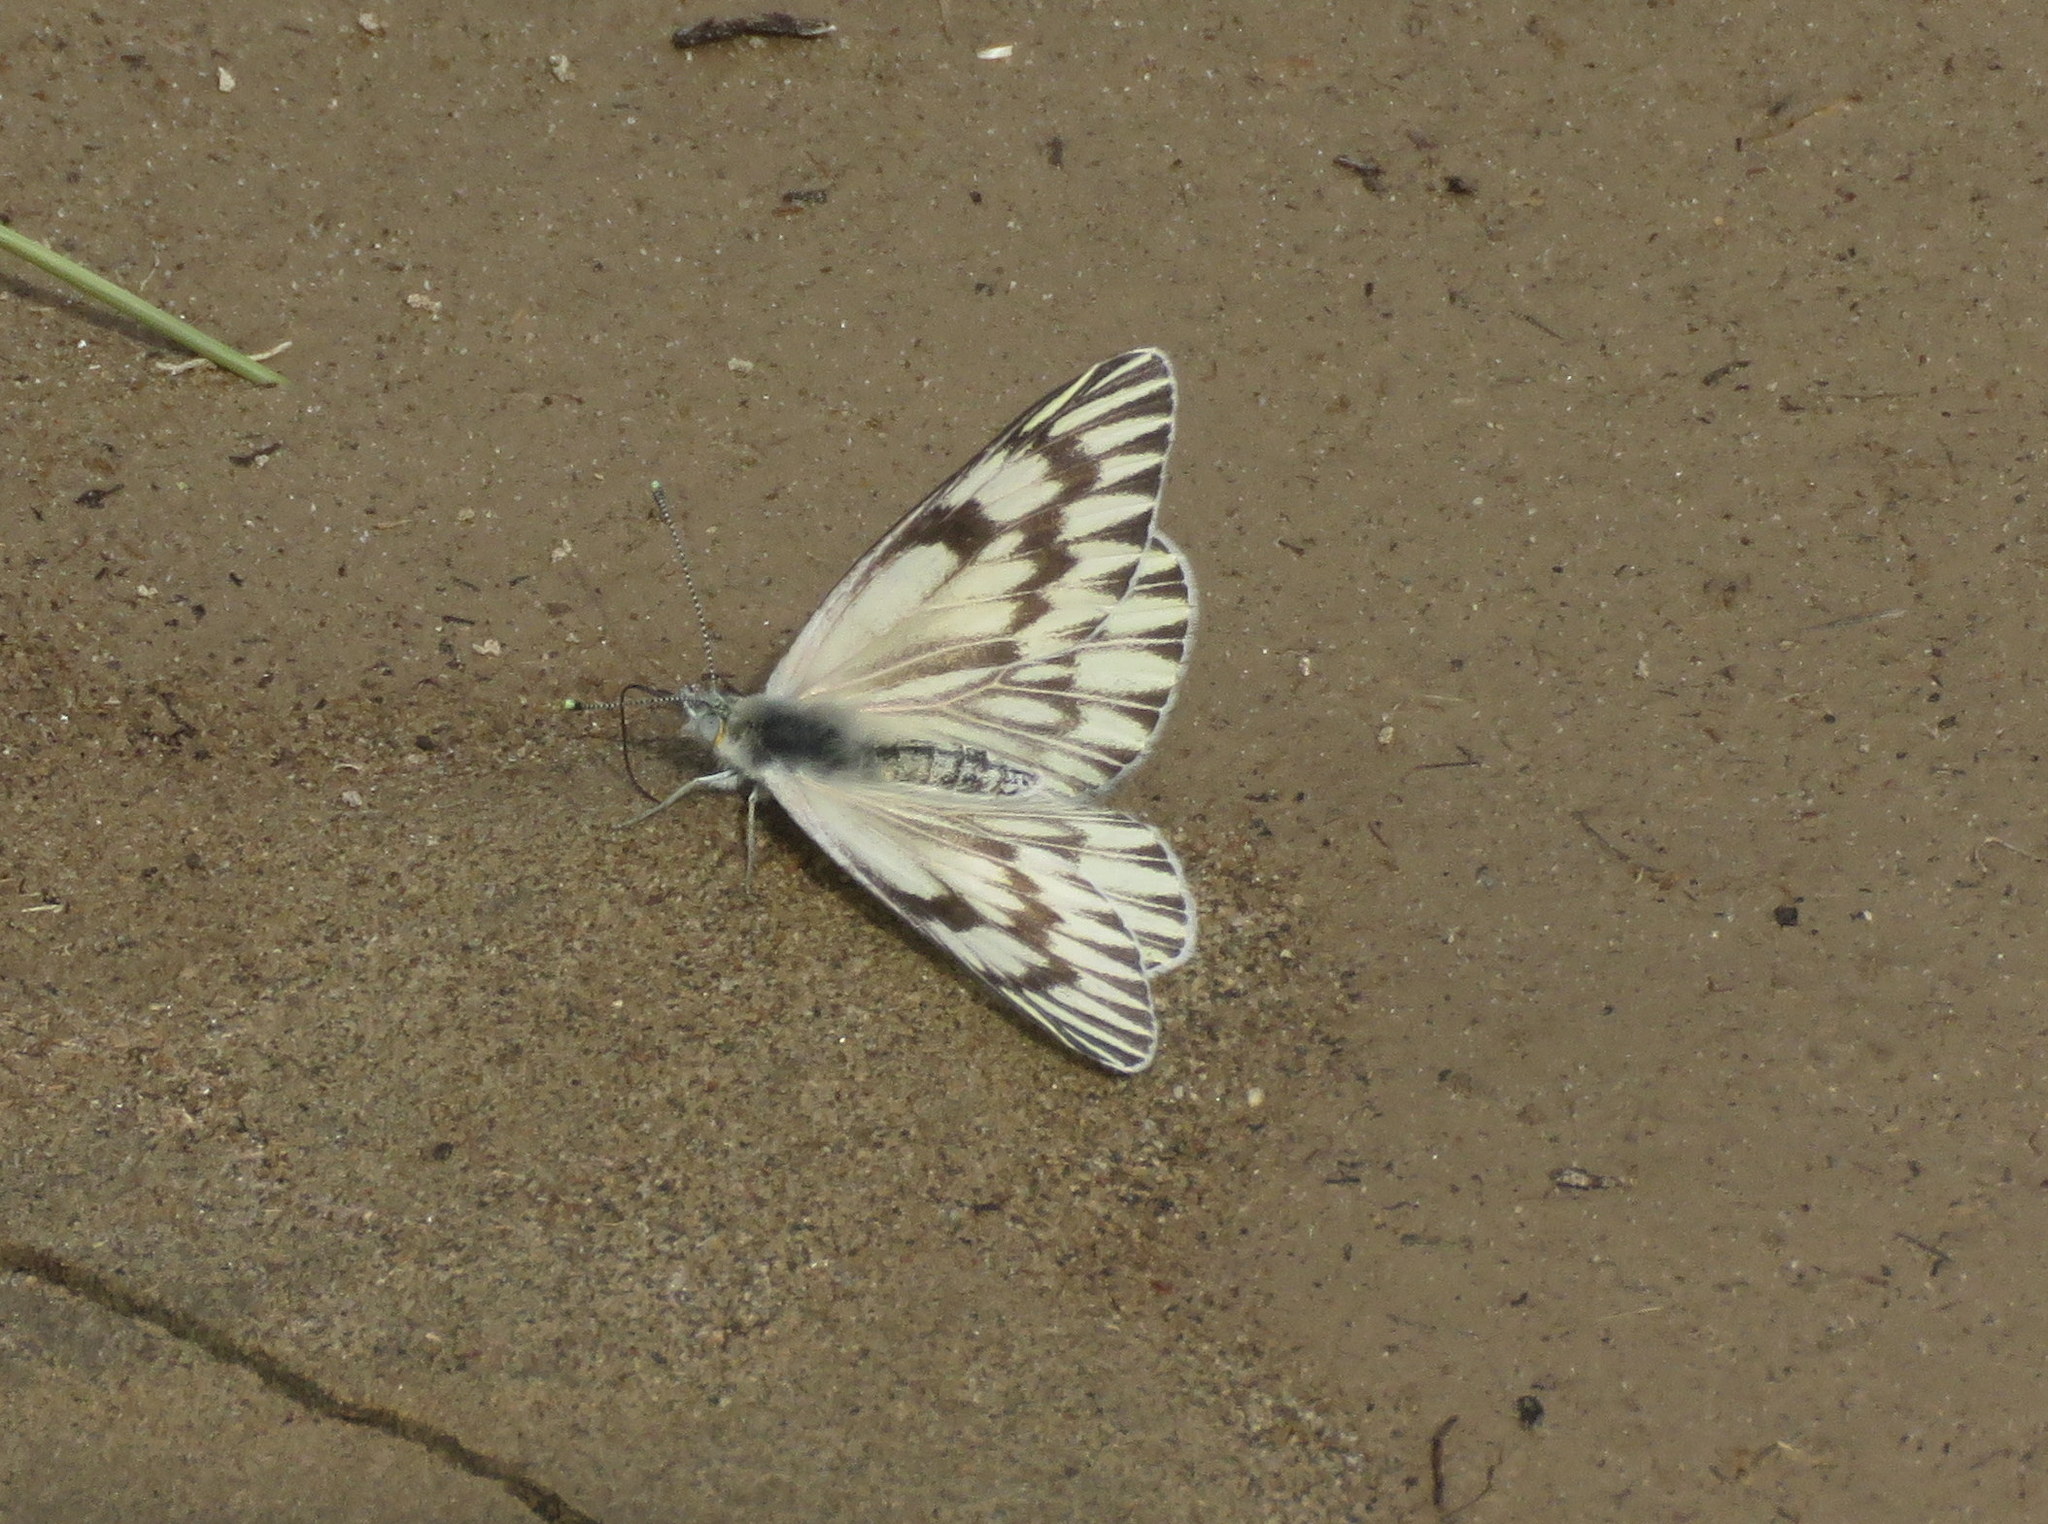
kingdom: Animalia
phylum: Arthropoda
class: Insecta
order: Lepidoptera
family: Pieridae
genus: Tatochila
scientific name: Tatochila mercedis
